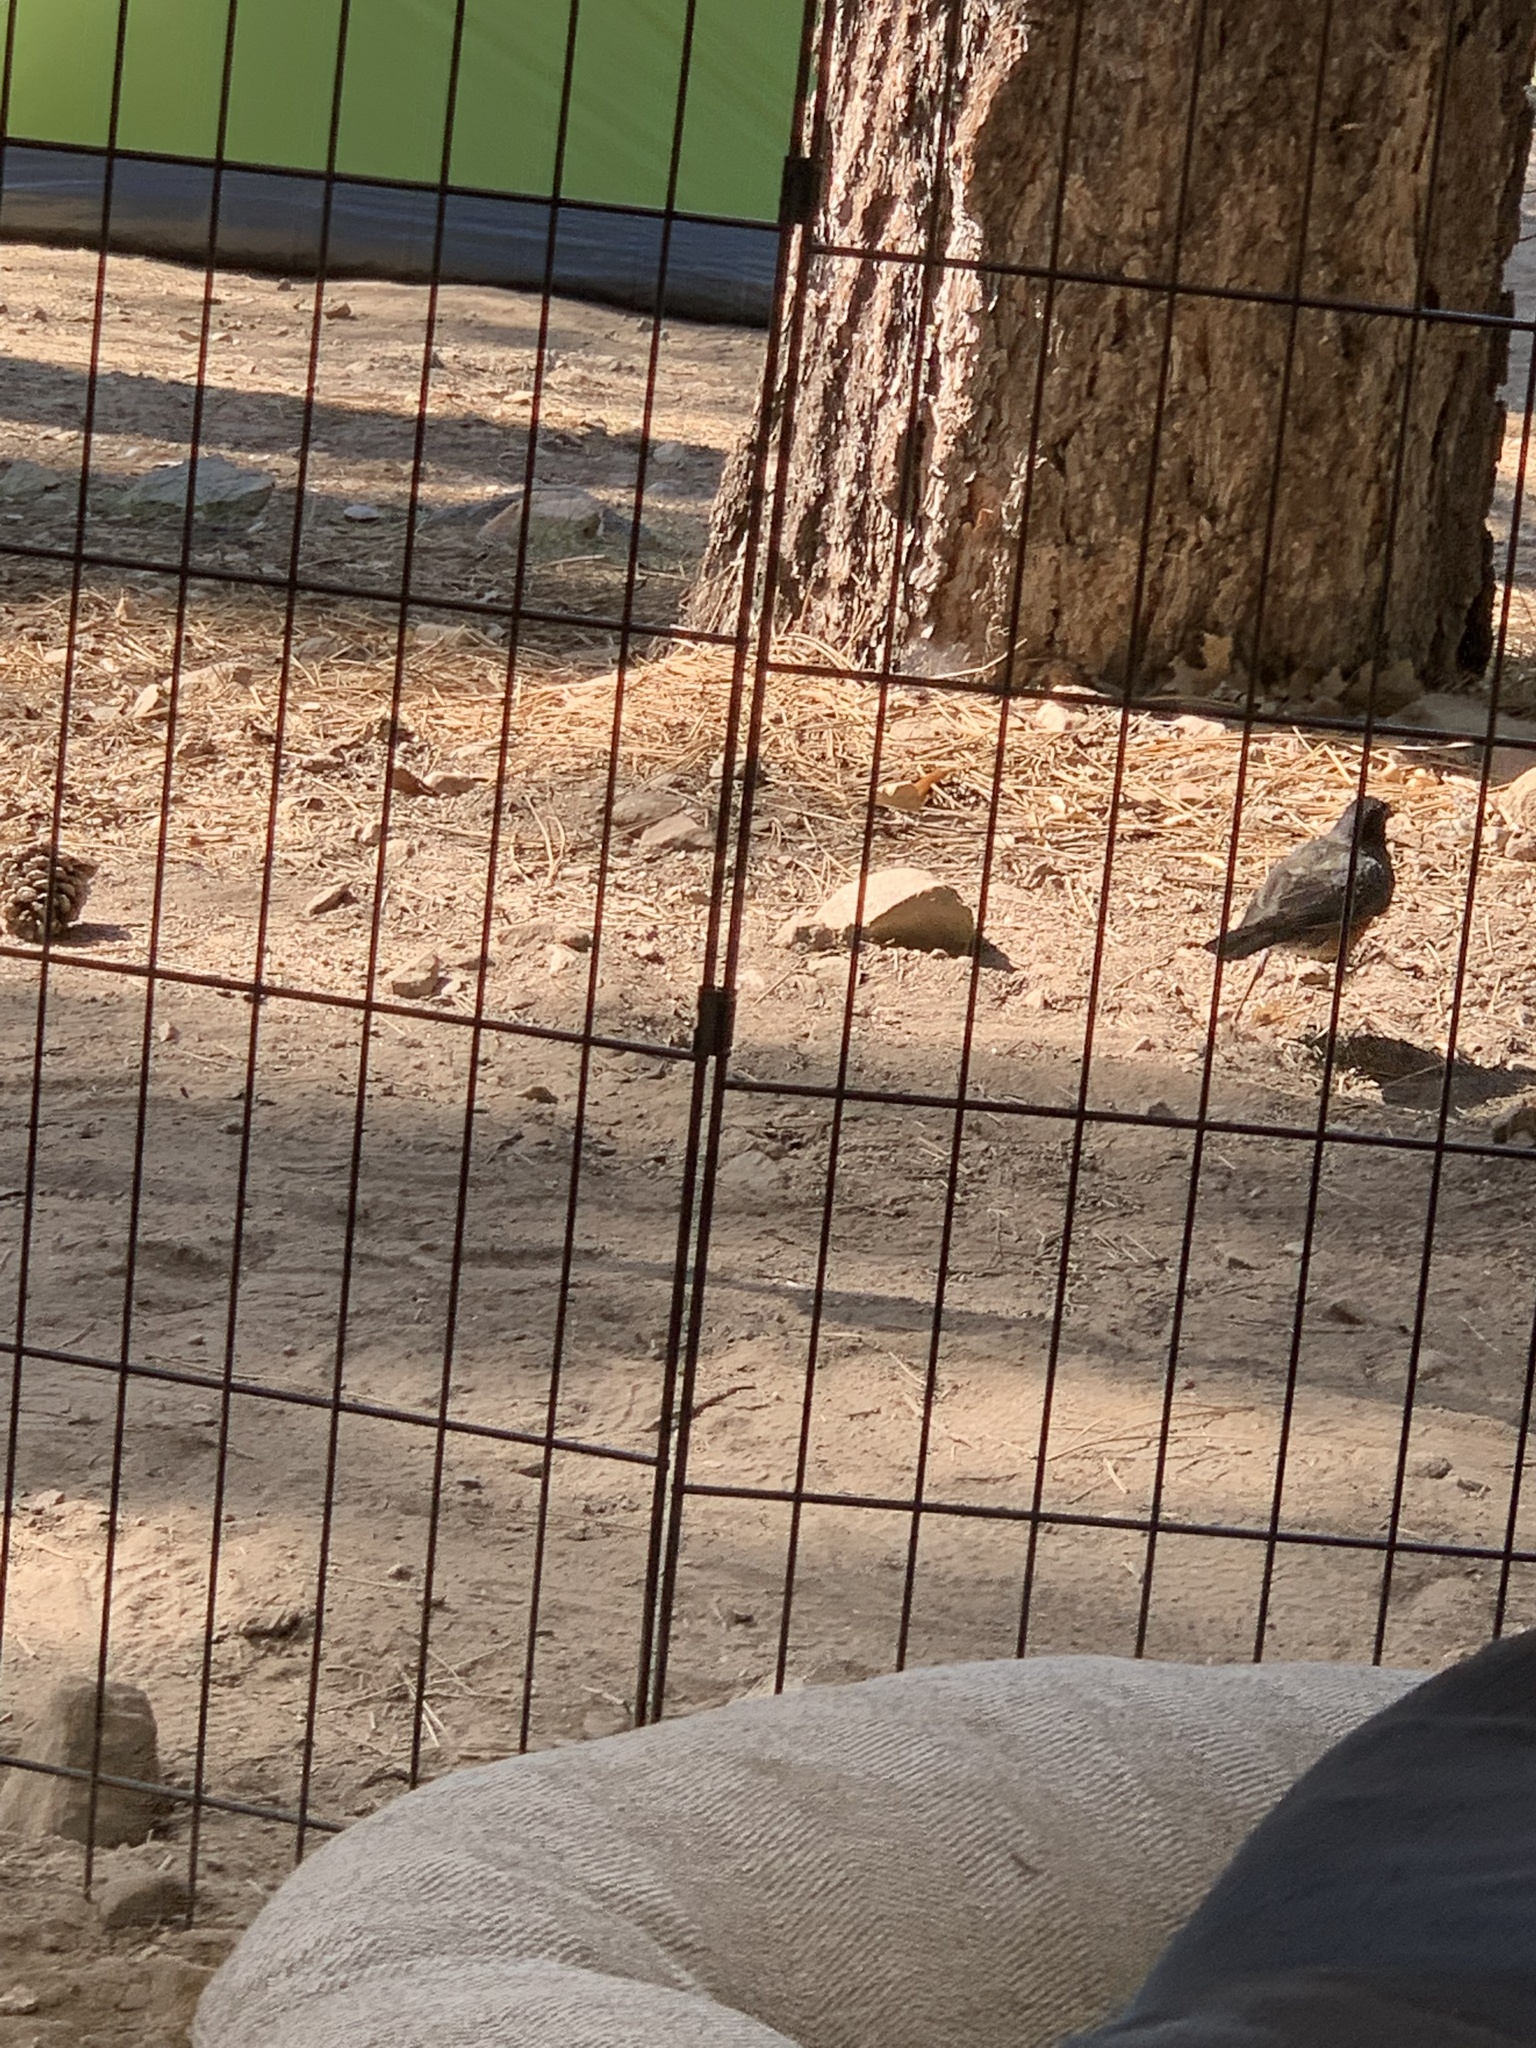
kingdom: Animalia
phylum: Chordata
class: Aves
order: Passeriformes
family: Turdidae
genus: Turdus
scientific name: Turdus migratorius
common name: American robin
